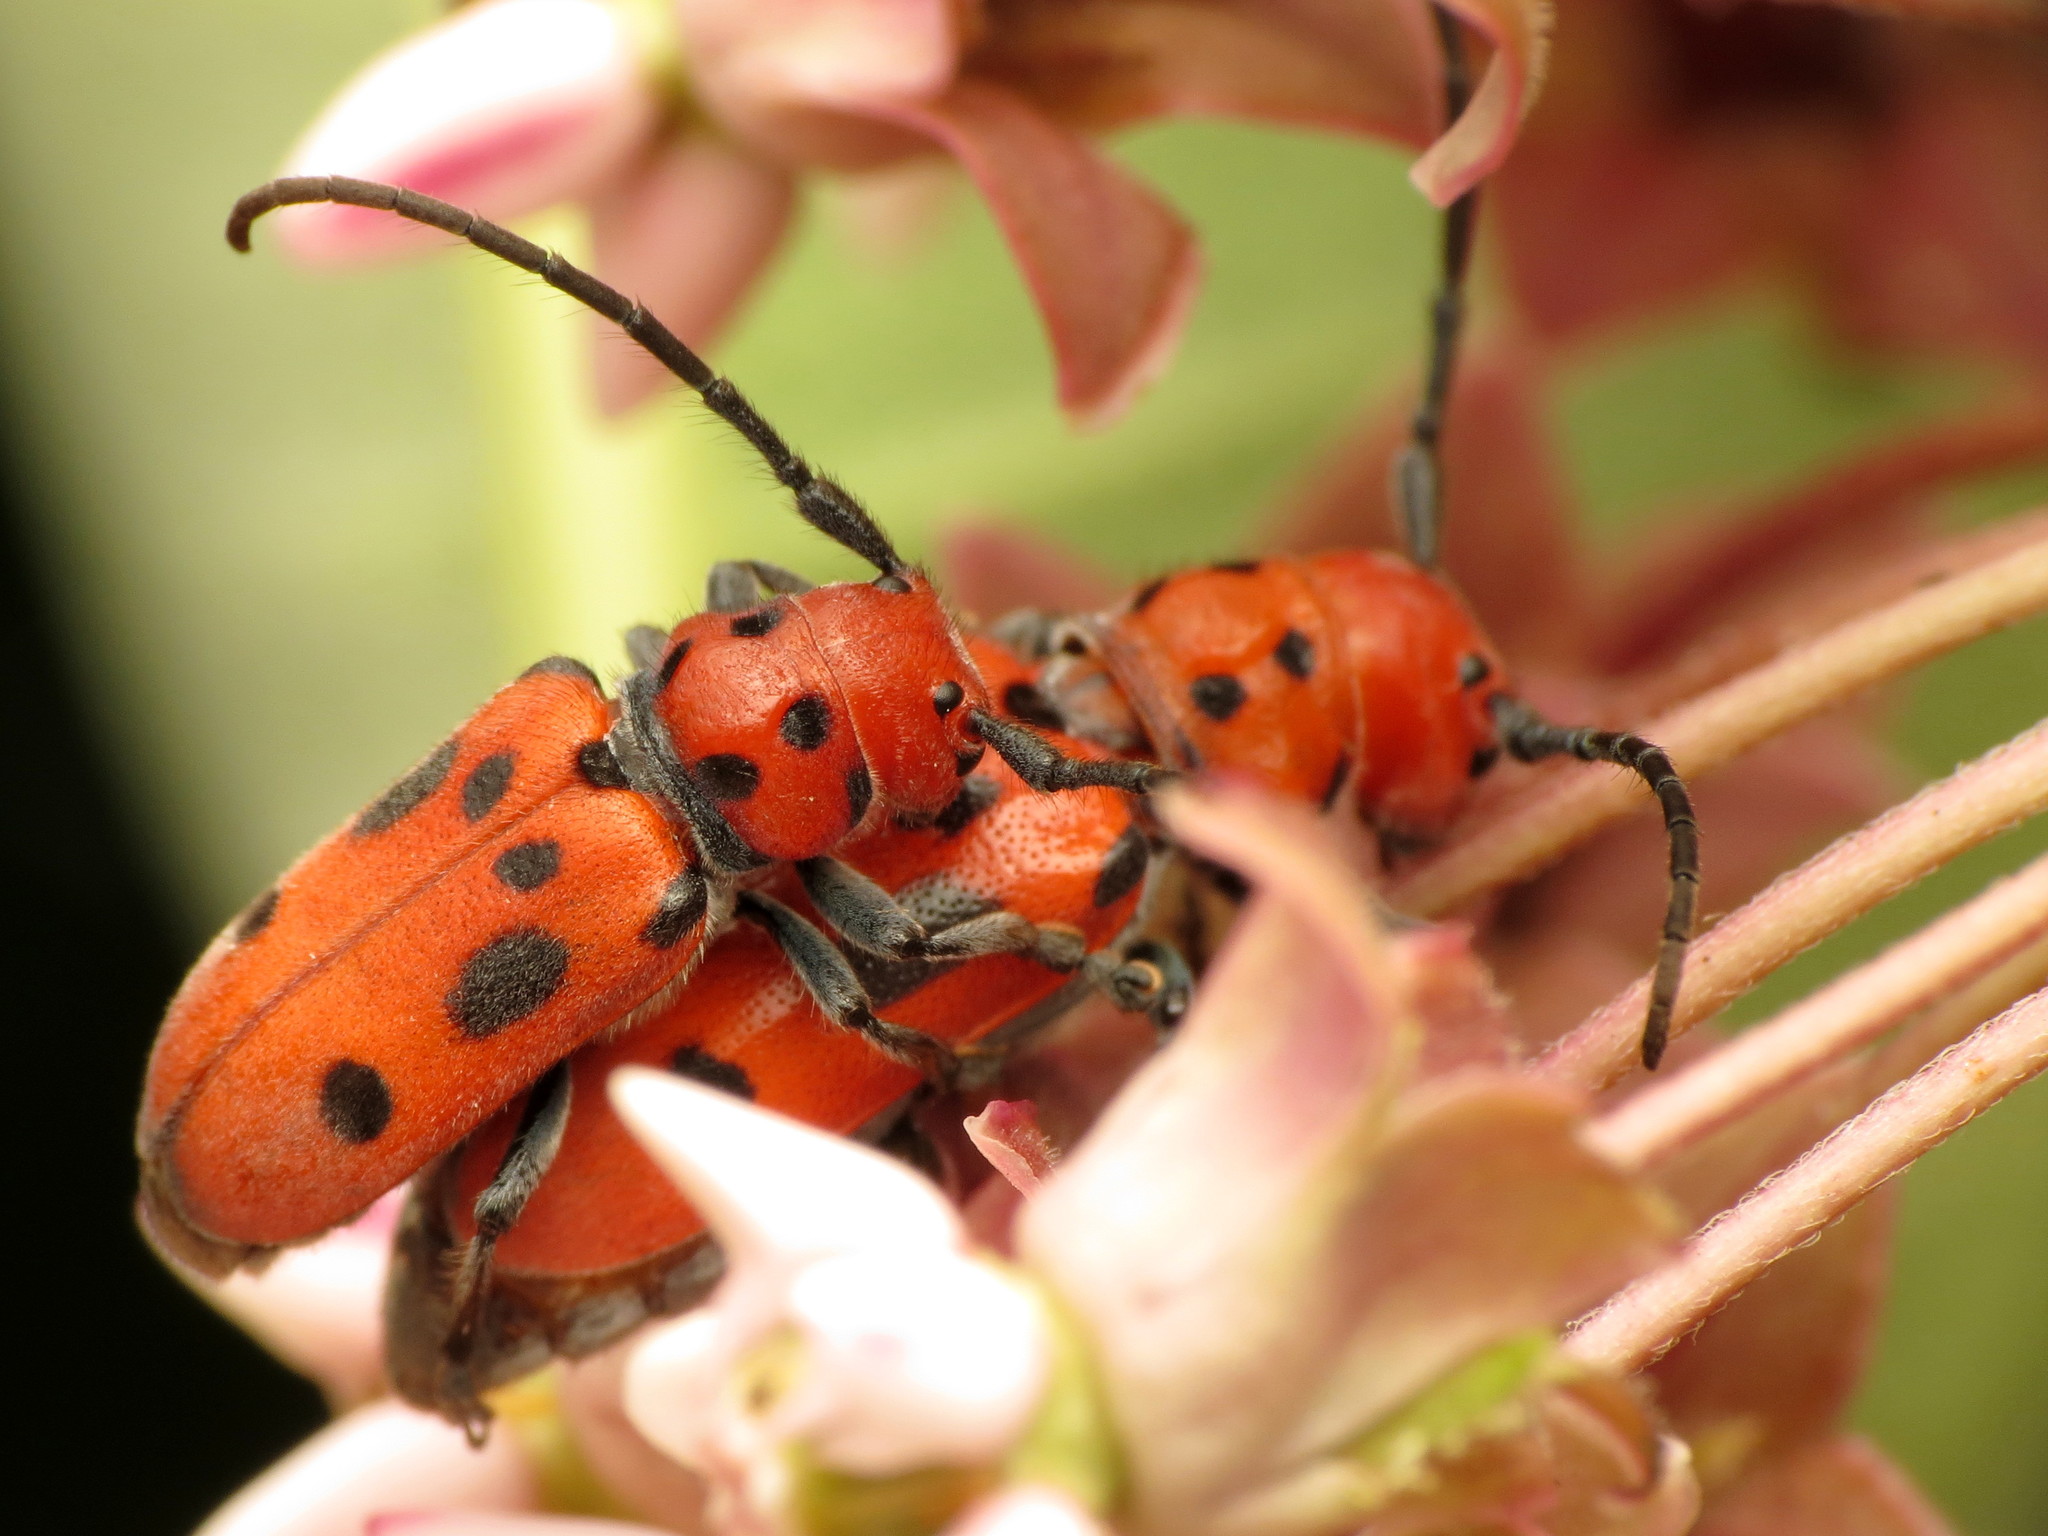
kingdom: Animalia
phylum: Arthropoda
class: Insecta
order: Coleoptera
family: Cerambycidae
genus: Tetraopes
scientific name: Tetraopes tetrophthalmus
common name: Red milkweed beetle
